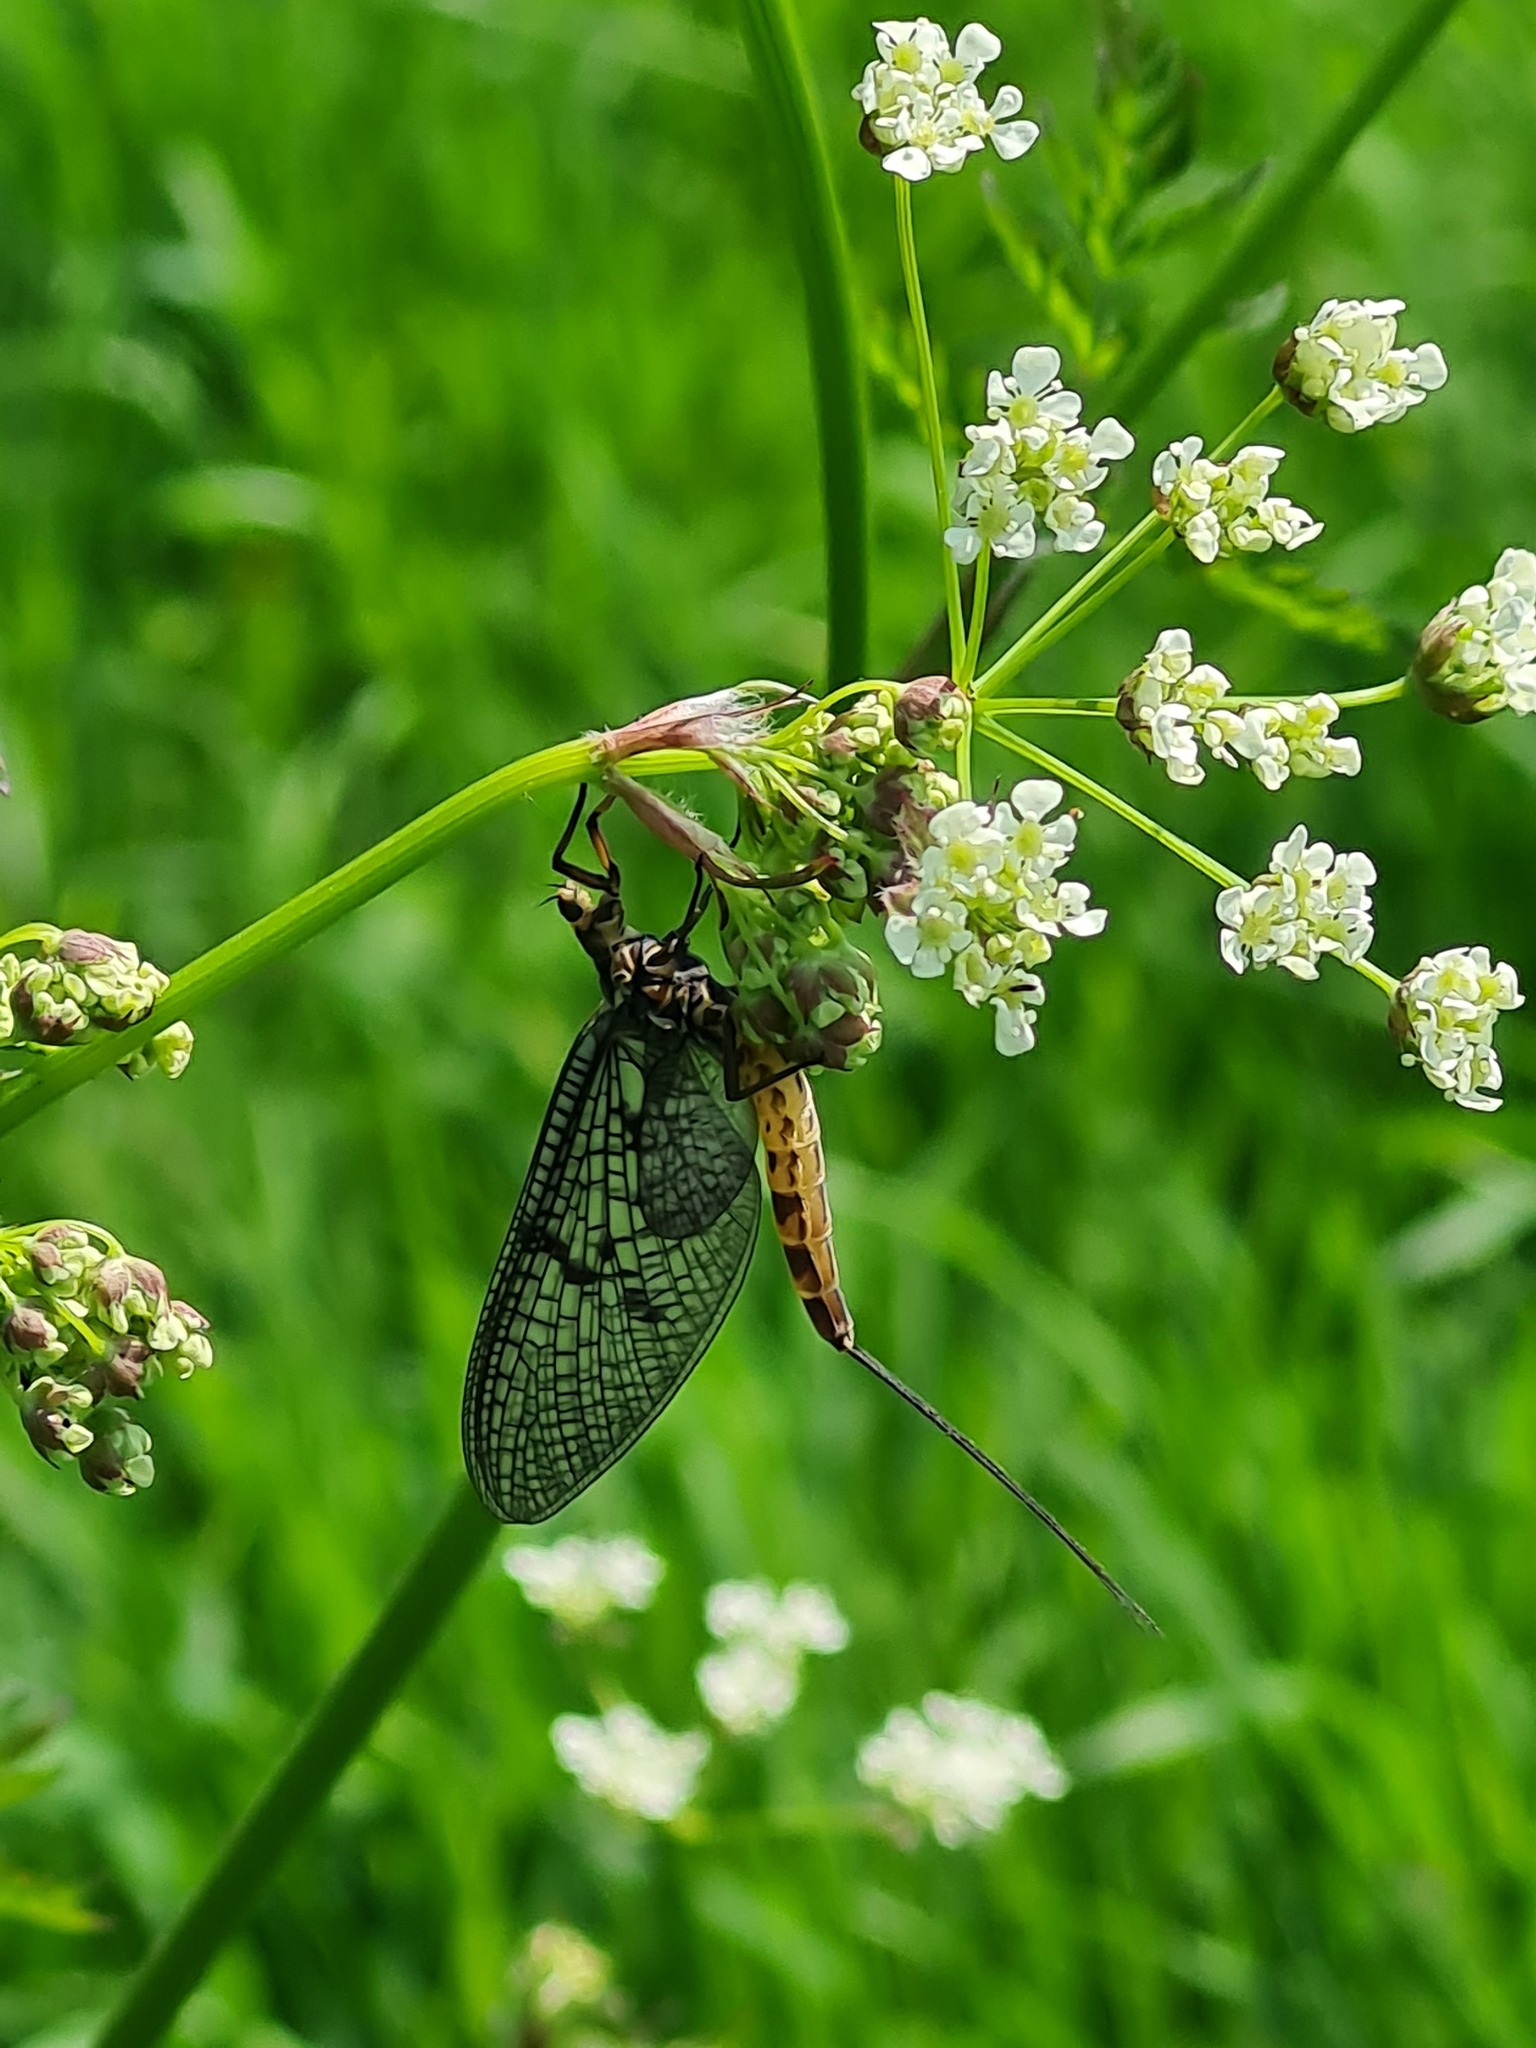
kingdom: Animalia
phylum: Arthropoda
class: Insecta
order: Ephemeroptera
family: Ephemeridae
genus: Ephemera
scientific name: Ephemera danica
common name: Green dun
